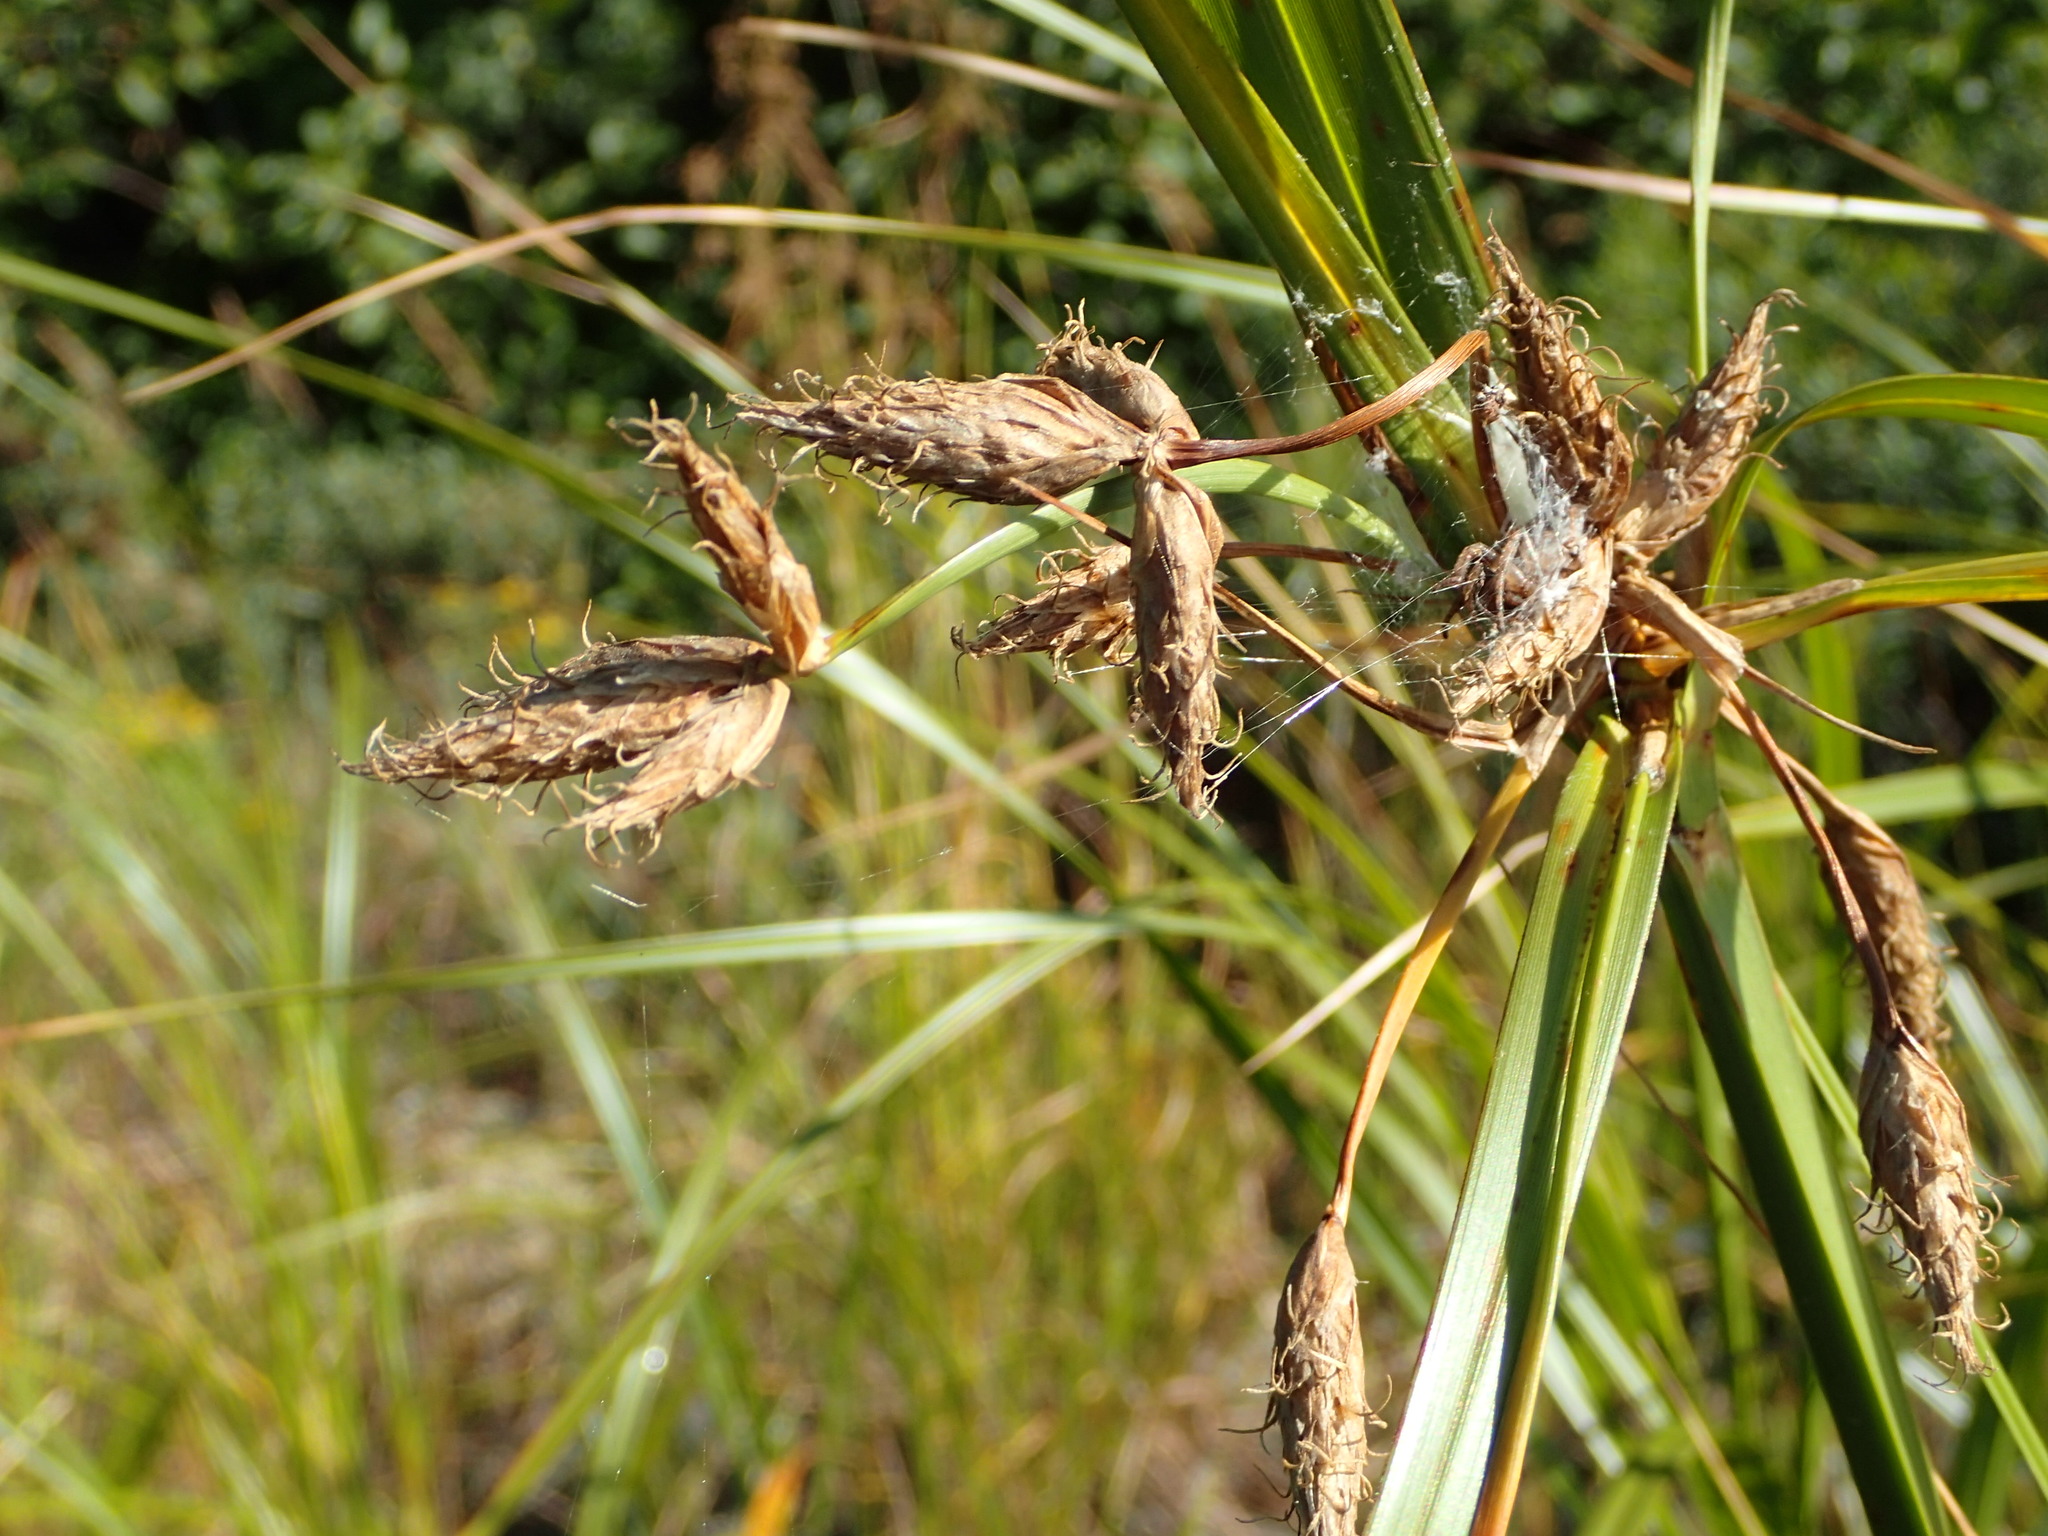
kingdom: Plantae
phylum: Tracheophyta
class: Liliopsida
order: Poales
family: Cyperaceae
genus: Bolboschoenus
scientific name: Bolboschoenus fluviatilis
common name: River bulrush
